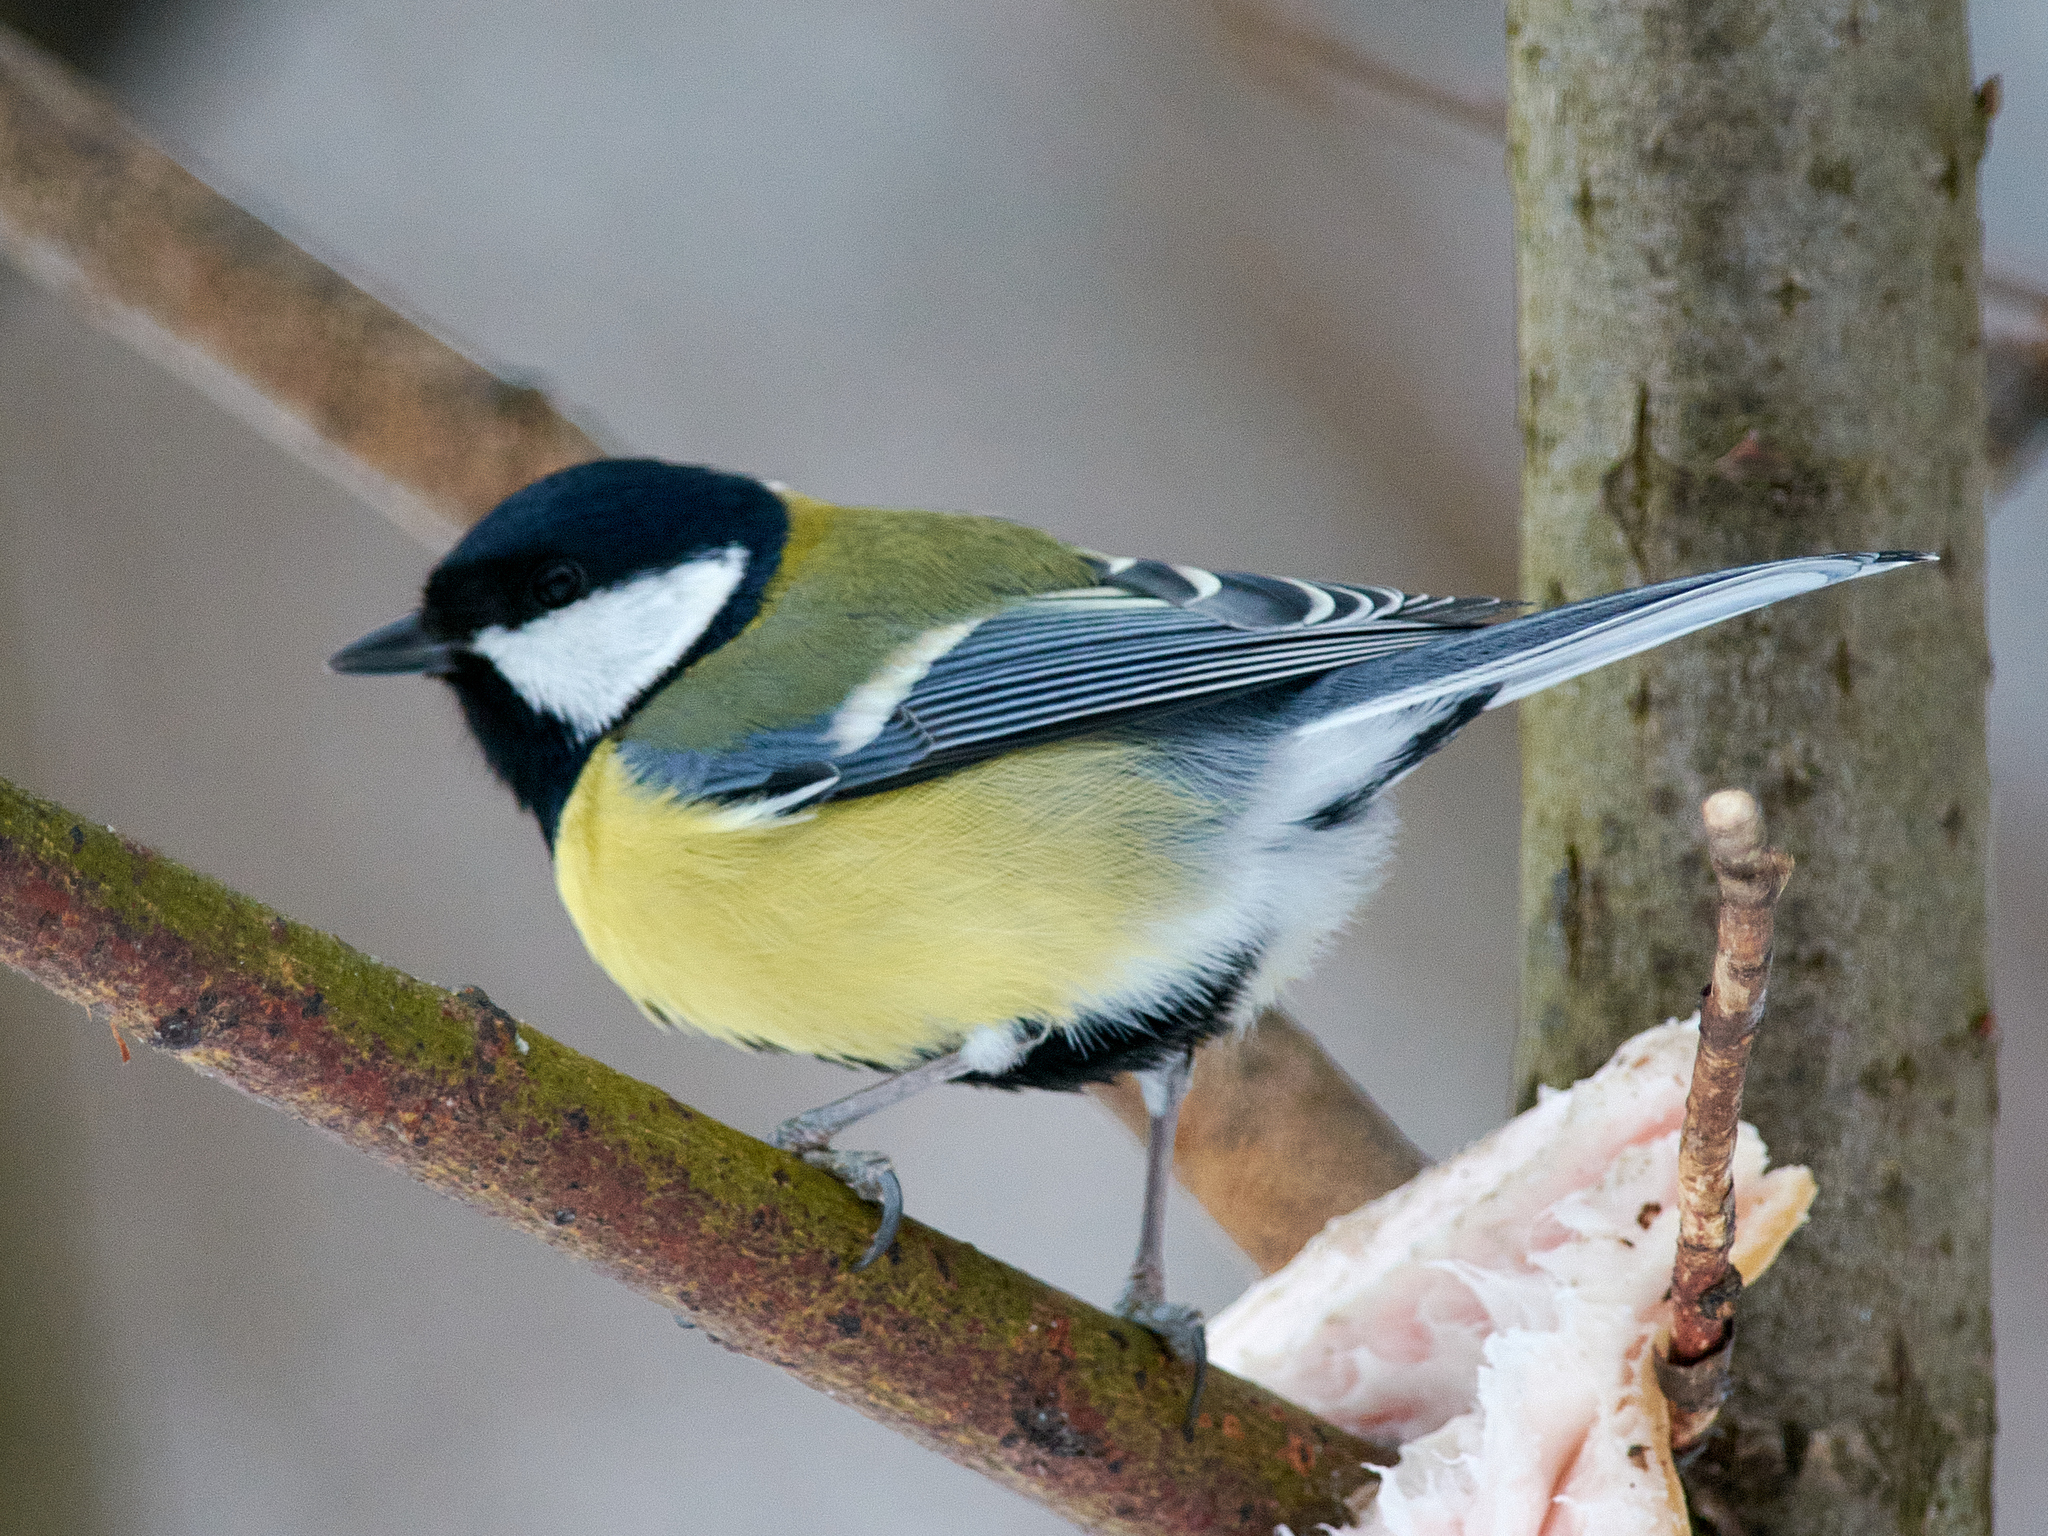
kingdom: Animalia
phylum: Chordata
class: Aves
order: Passeriformes
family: Paridae
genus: Parus
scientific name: Parus major
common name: Great tit
